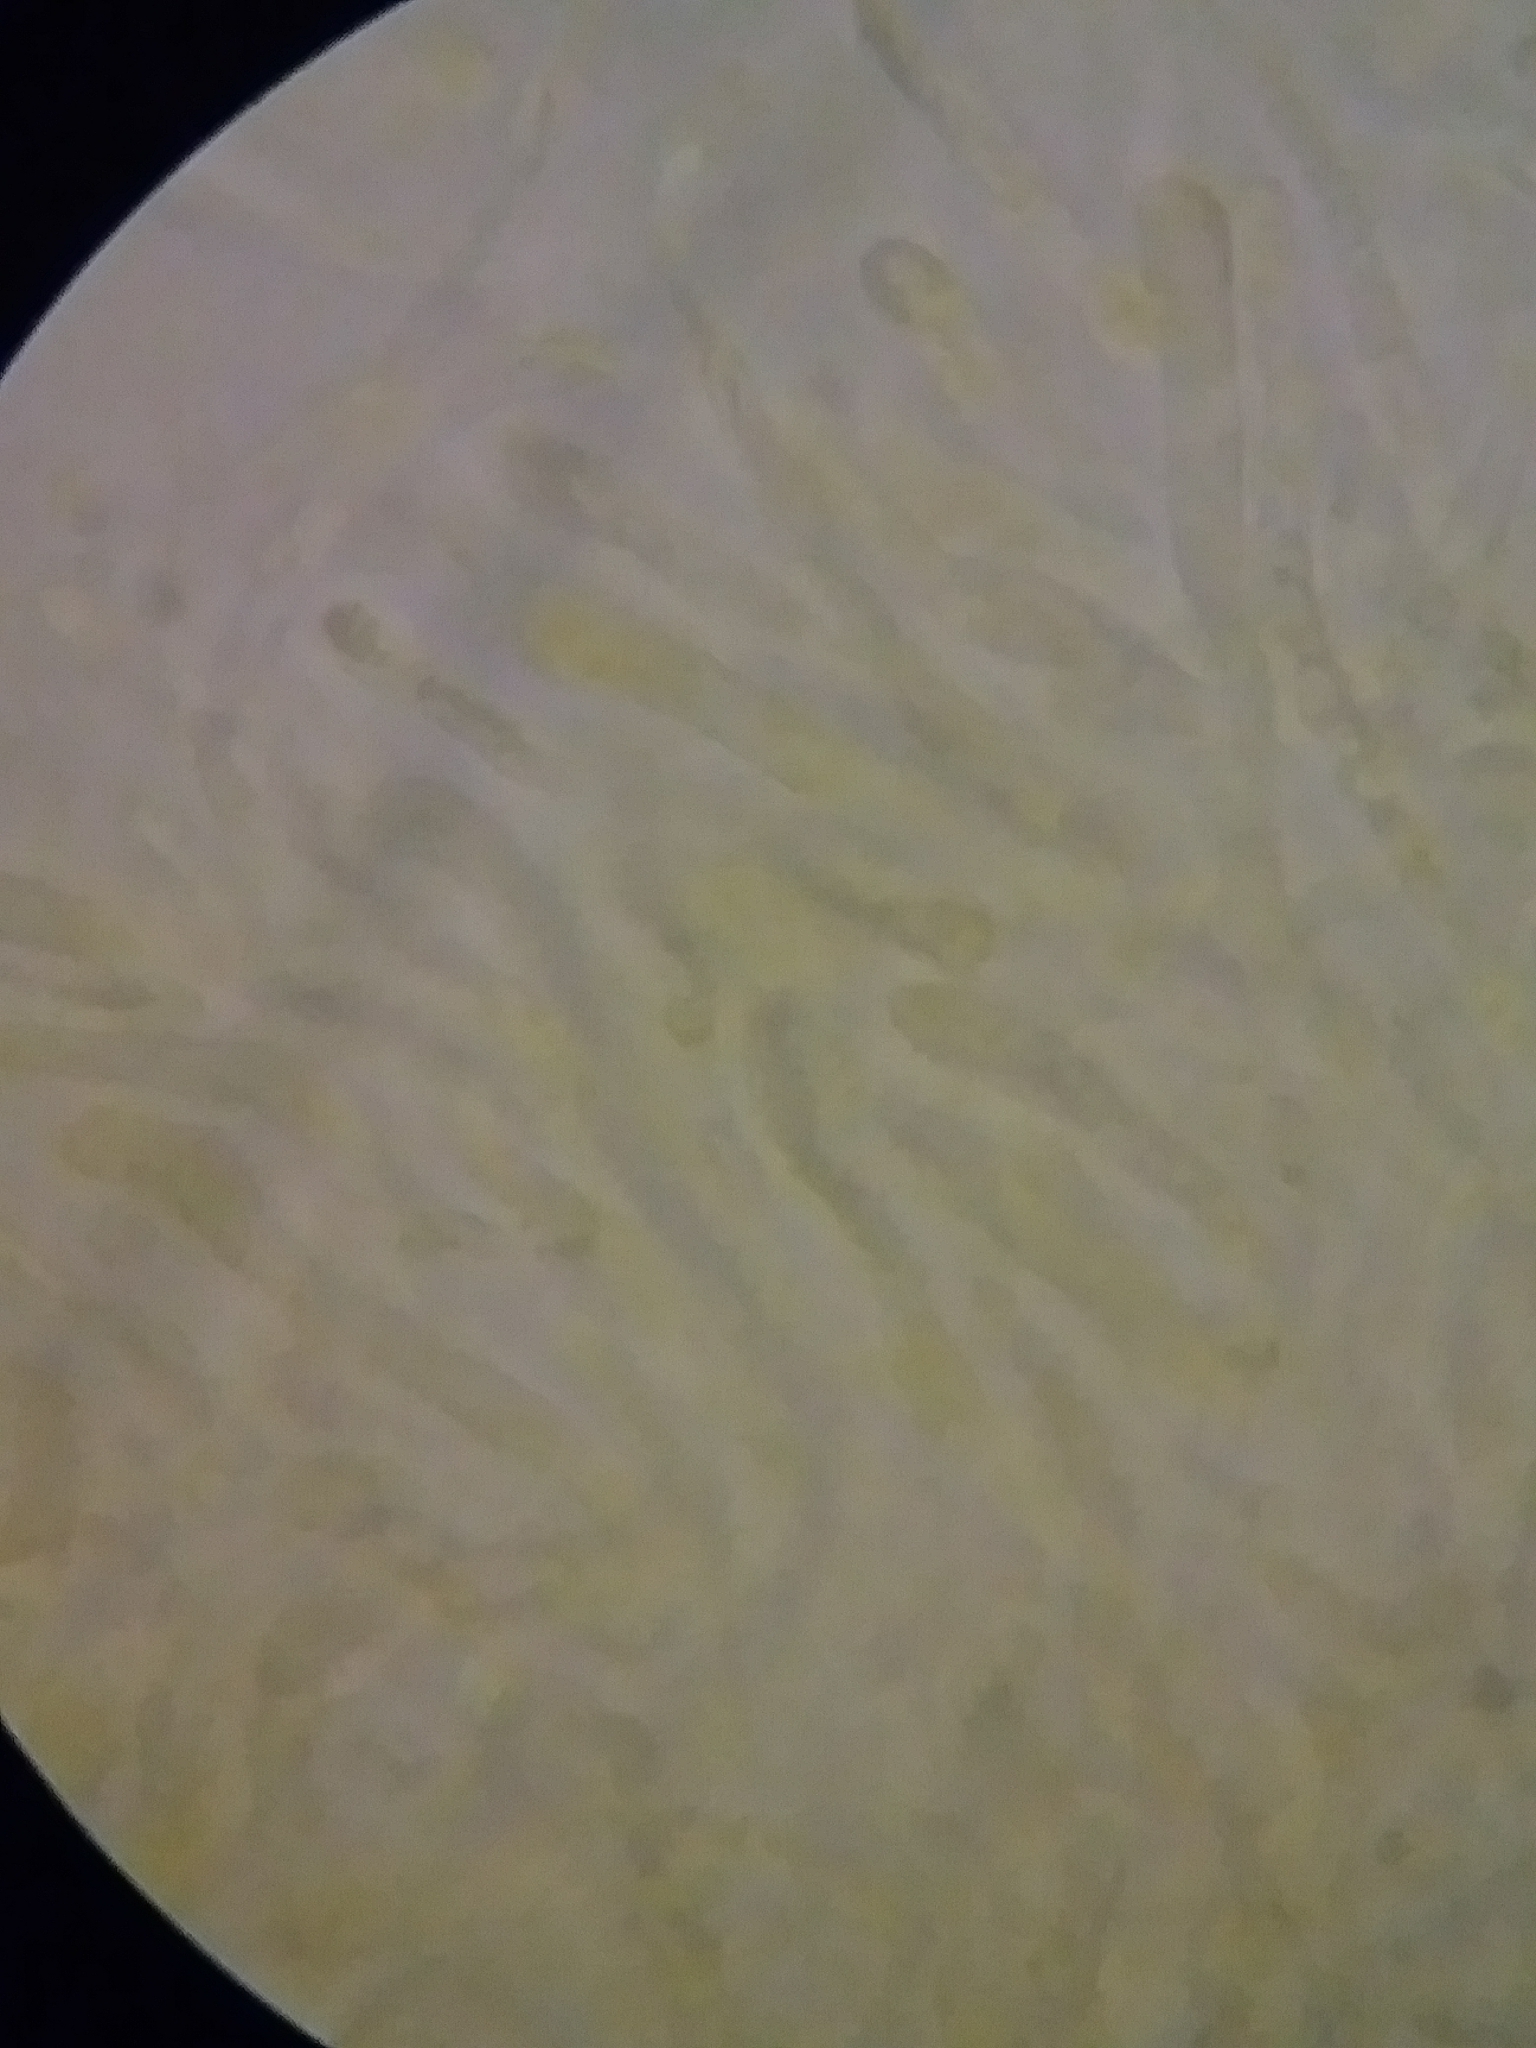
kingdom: Fungi
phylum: Basidiomycota
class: Dacrymycetes
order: Dacrymycetales
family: Dacrymycetaceae
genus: Guepiniopsis
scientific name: Guepiniopsis buccina
